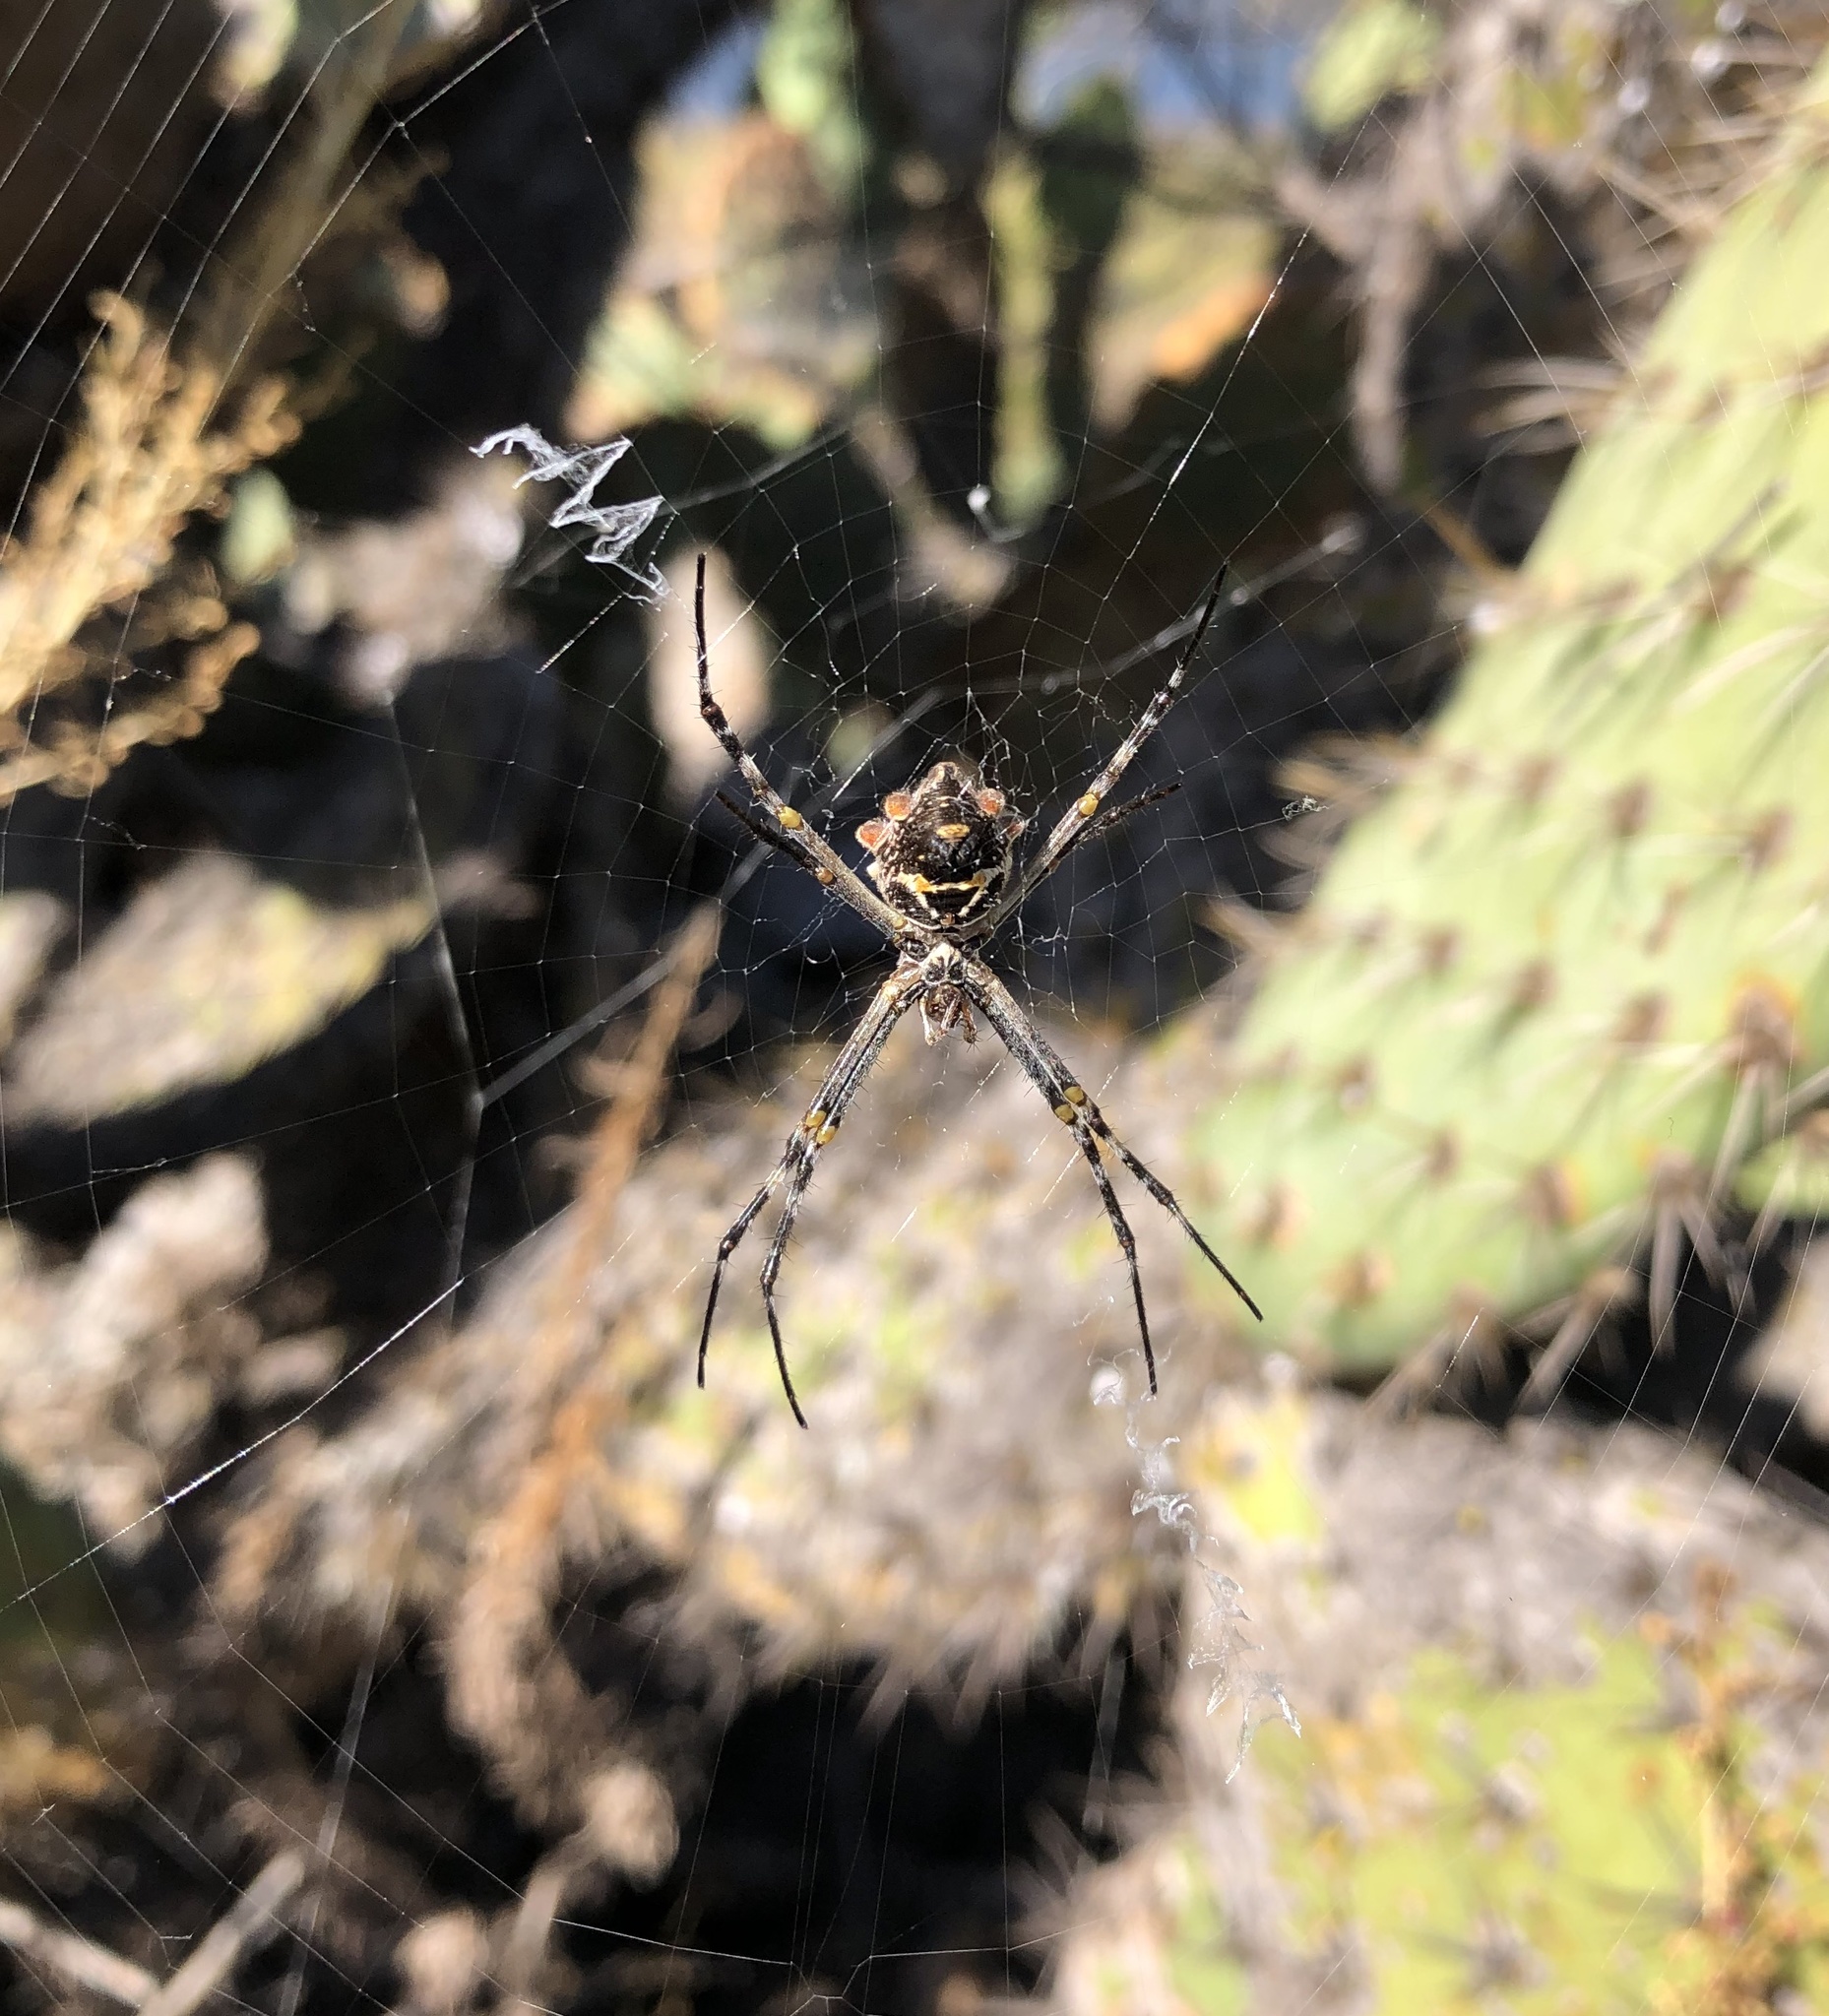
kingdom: Animalia
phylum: Arthropoda
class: Arachnida
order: Araneae
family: Araneidae
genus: Argiope
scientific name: Argiope argentata
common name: Orb weavers
